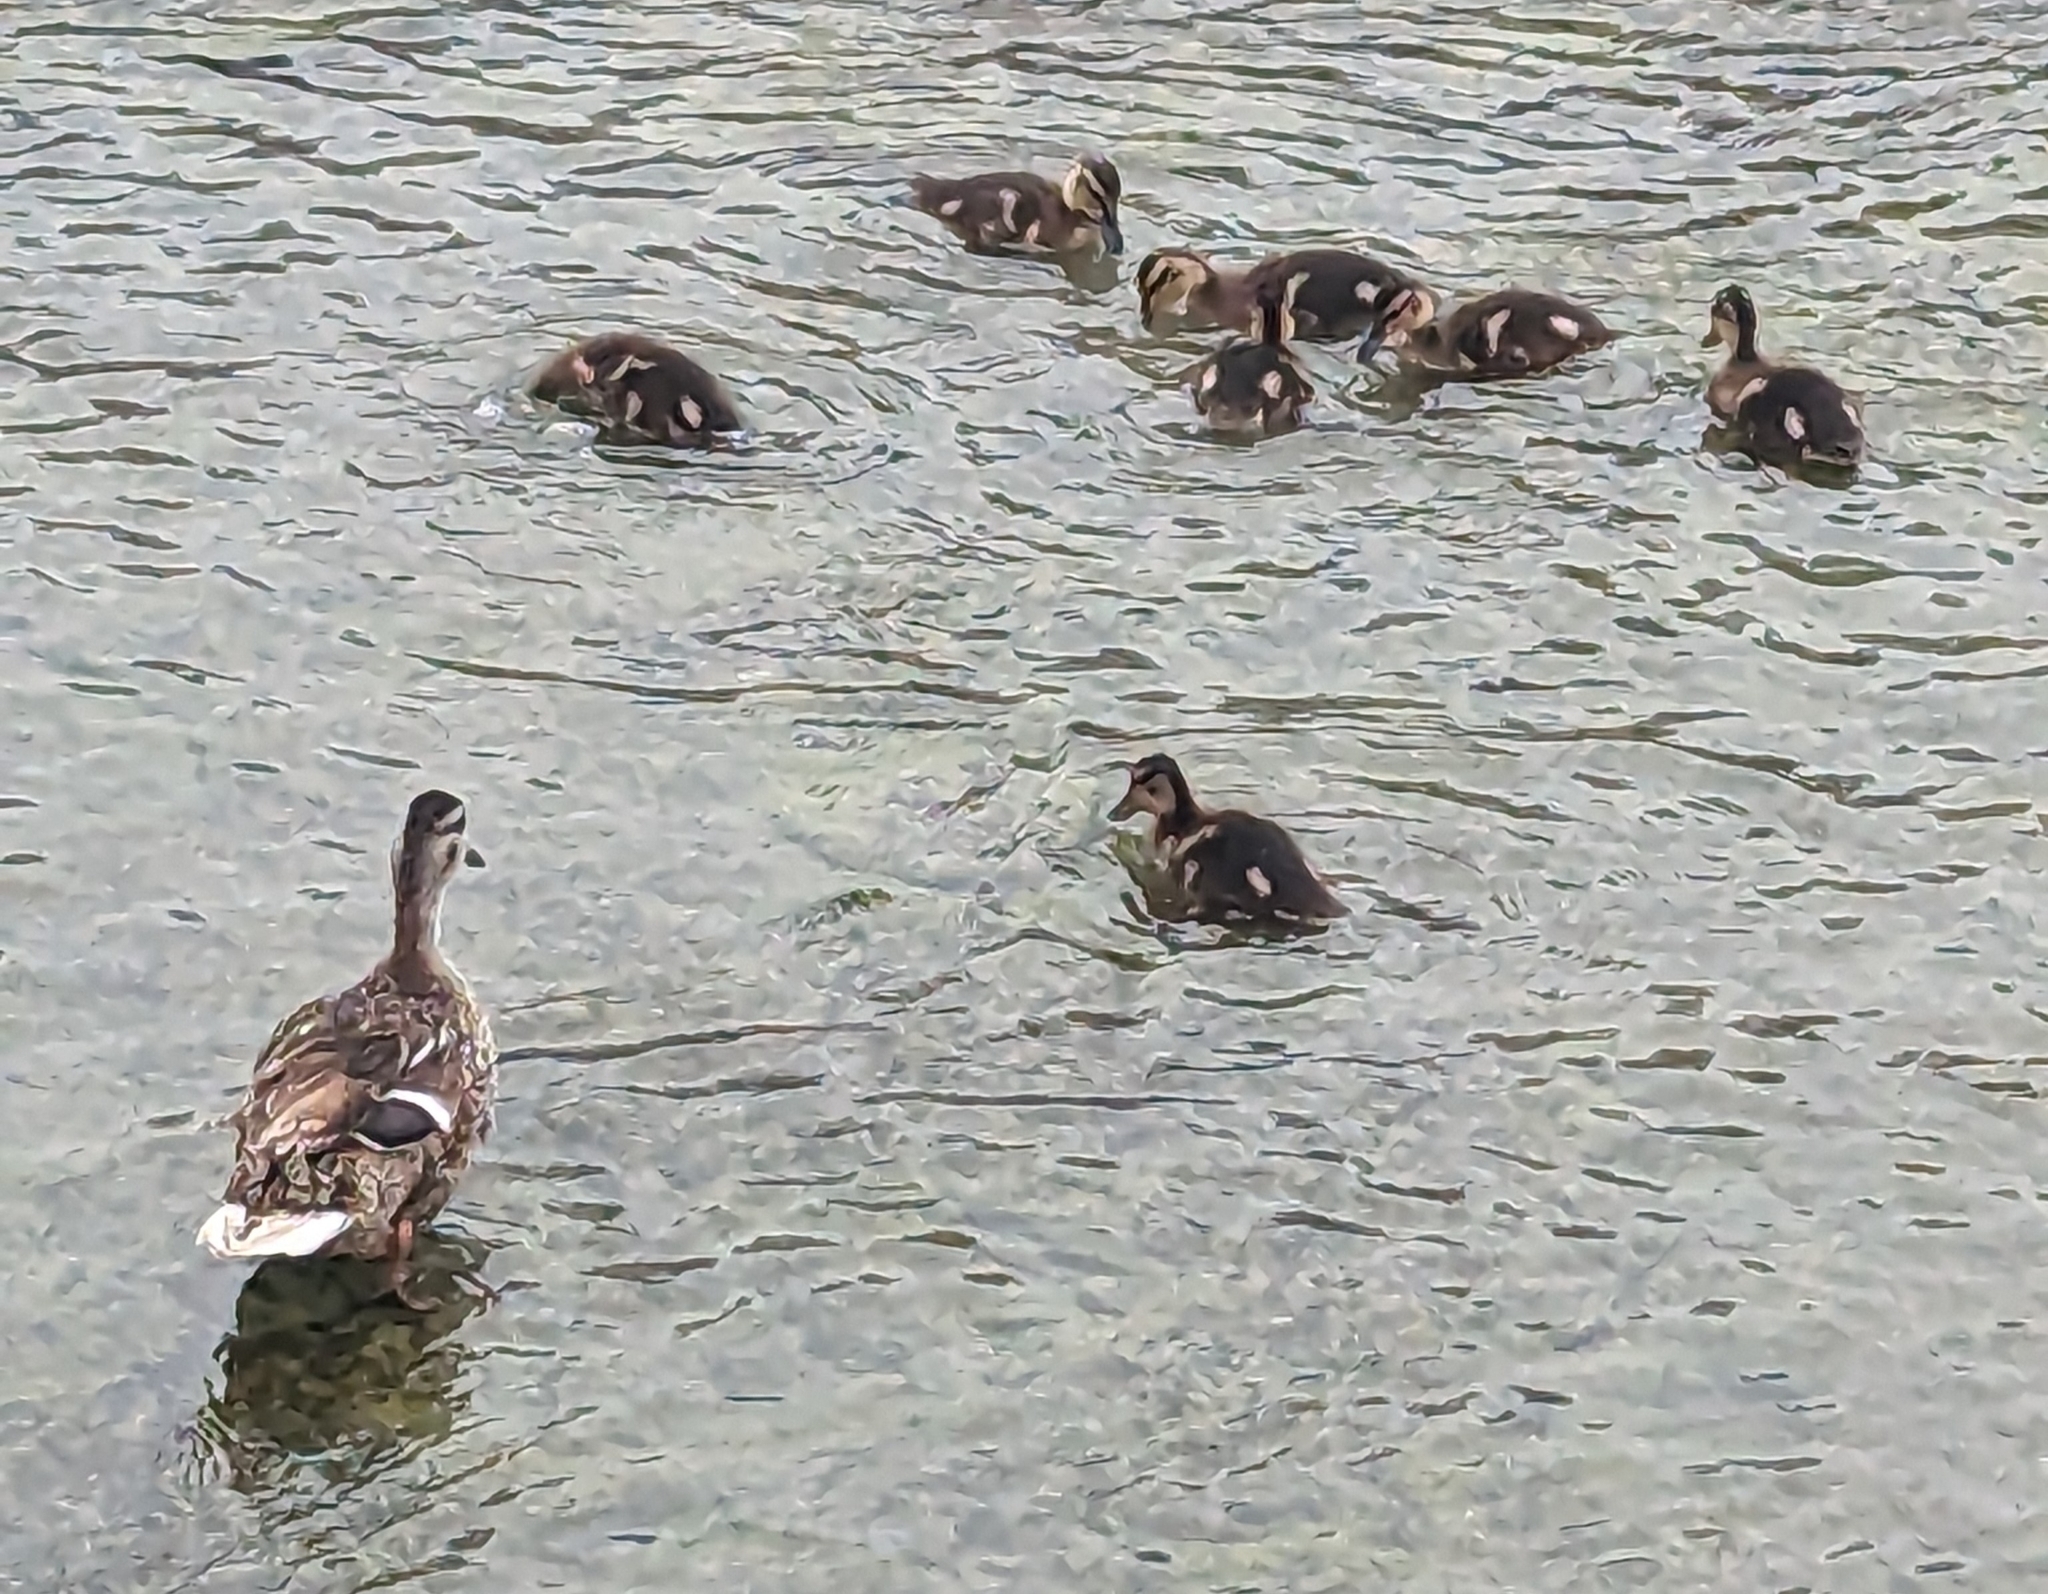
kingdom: Animalia
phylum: Chordata
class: Aves
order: Anseriformes
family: Anatidae
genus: Anas
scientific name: Anas platyrhynchos
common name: Mallard
